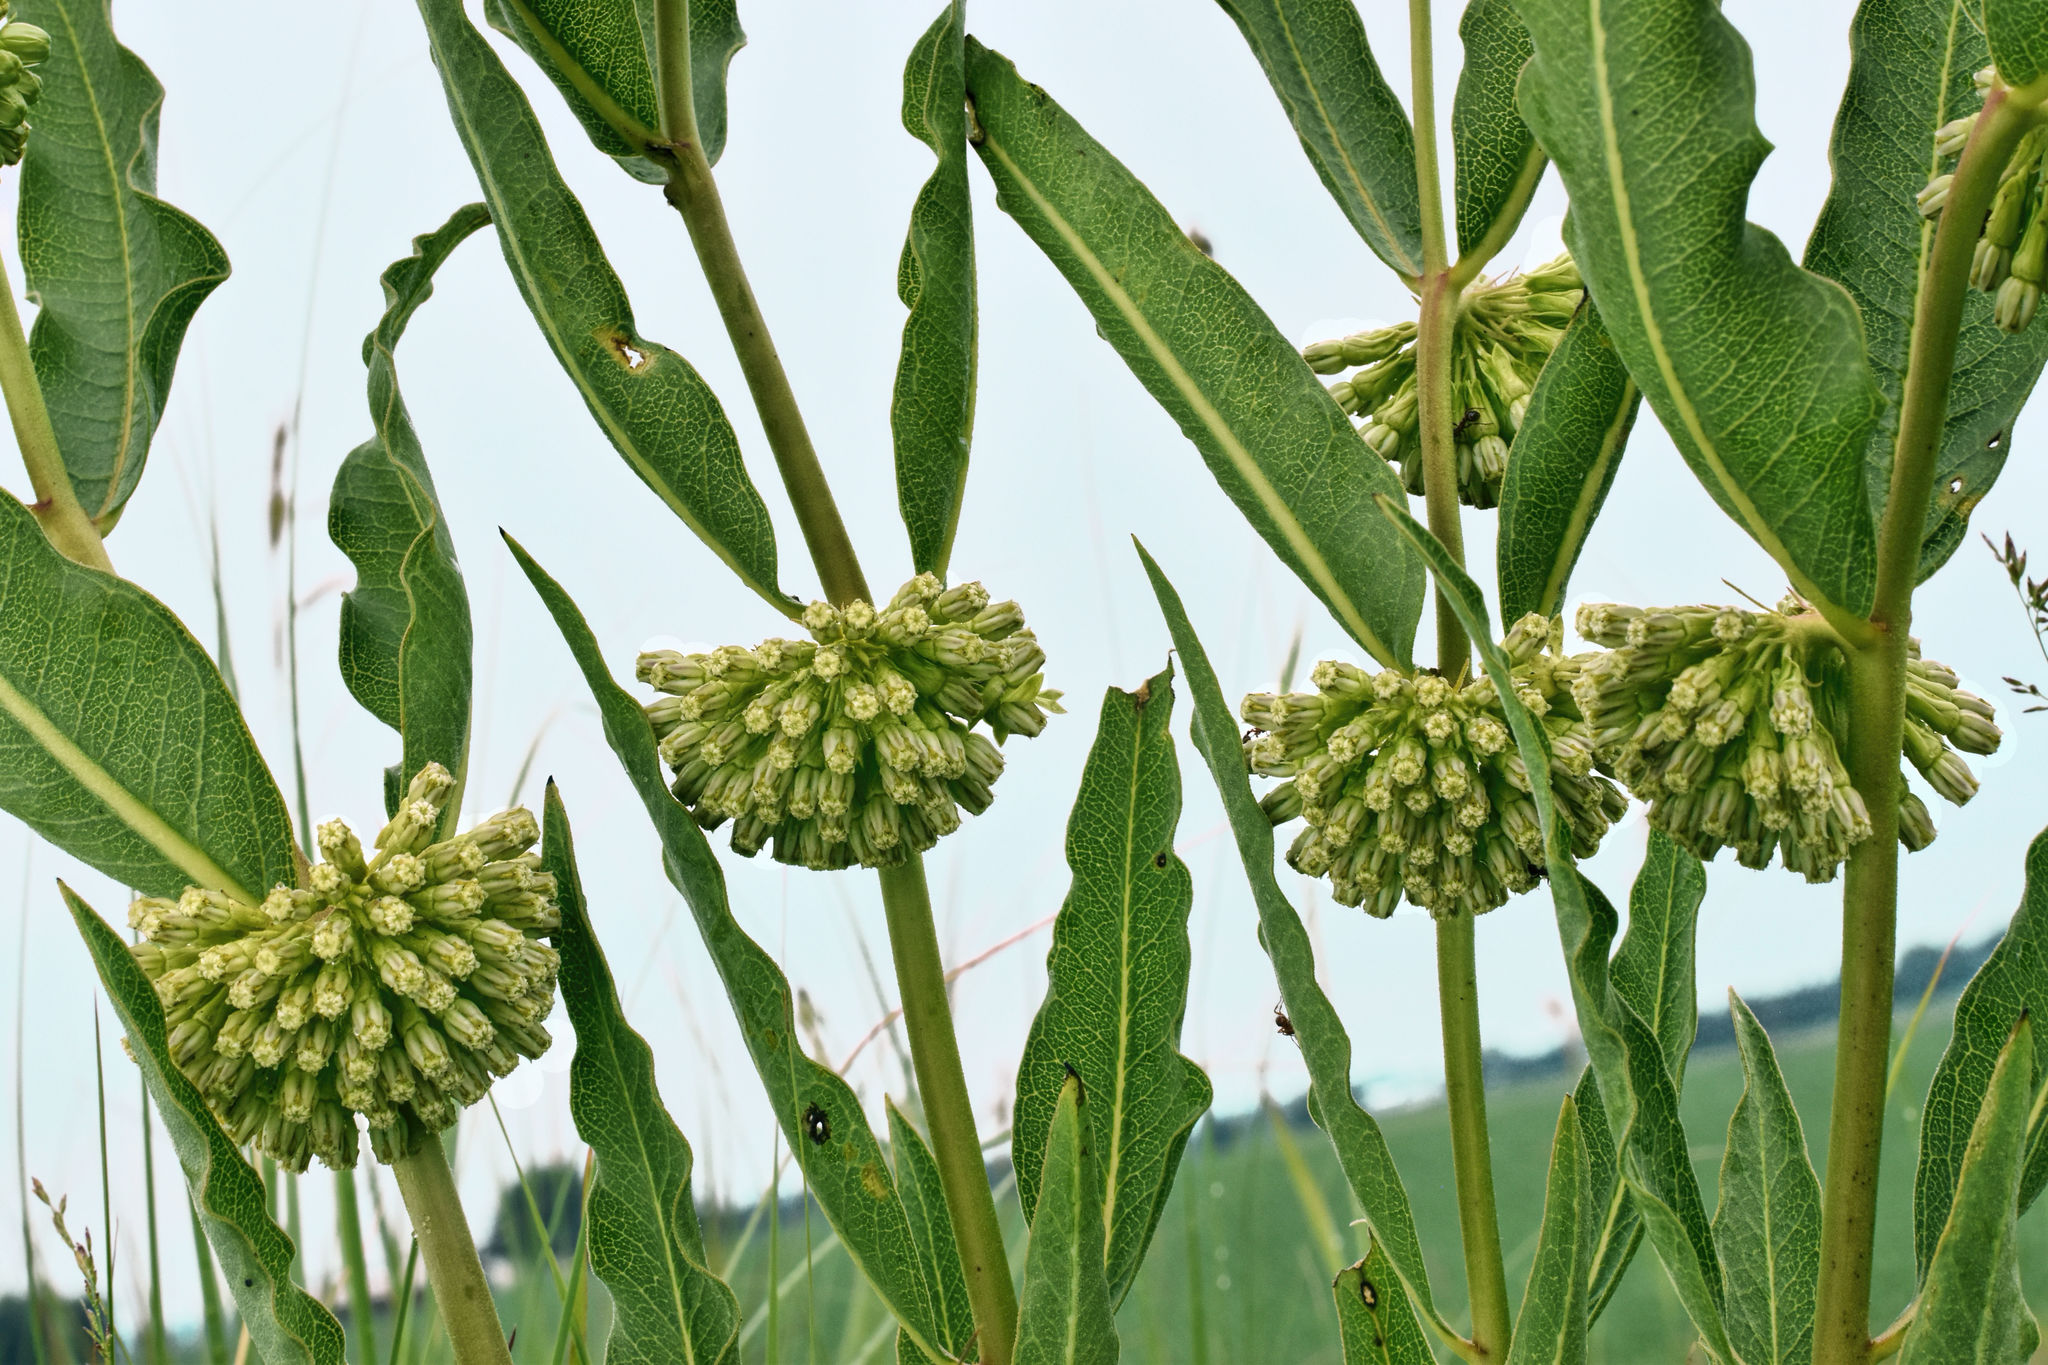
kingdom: Plantae
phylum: Tracheophyta
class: Magnoliopsida
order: Gentianales
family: Apocynaceae
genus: Asclepias
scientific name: Asclepias viridiflora
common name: Green comet milkweed
